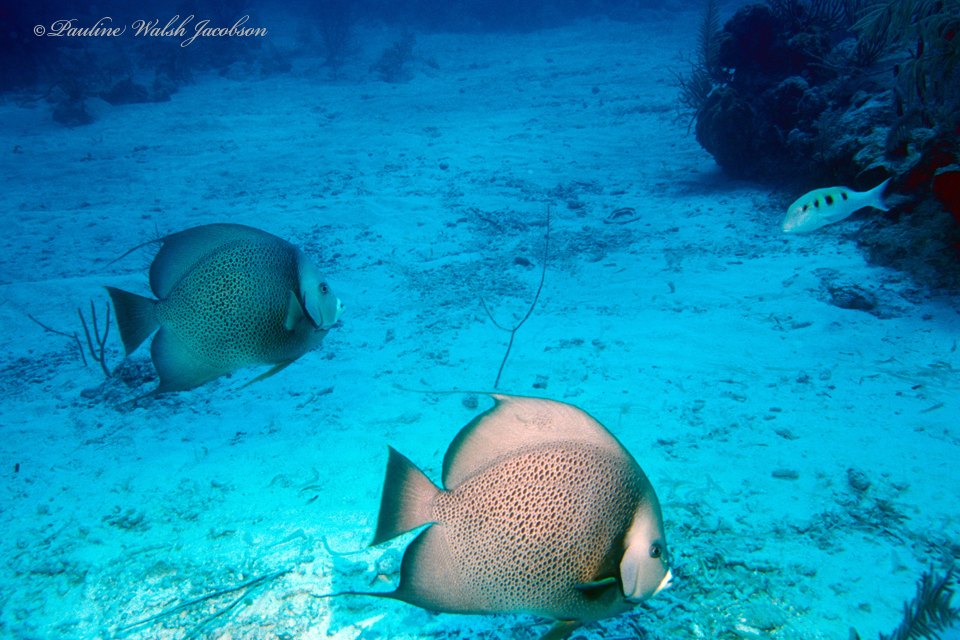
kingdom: Animalia
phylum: Chordata
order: Perciformes
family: Mullidae
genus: Pseudupeneus
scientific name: Pseudupeneus maculatus
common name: Spotted goatfish
